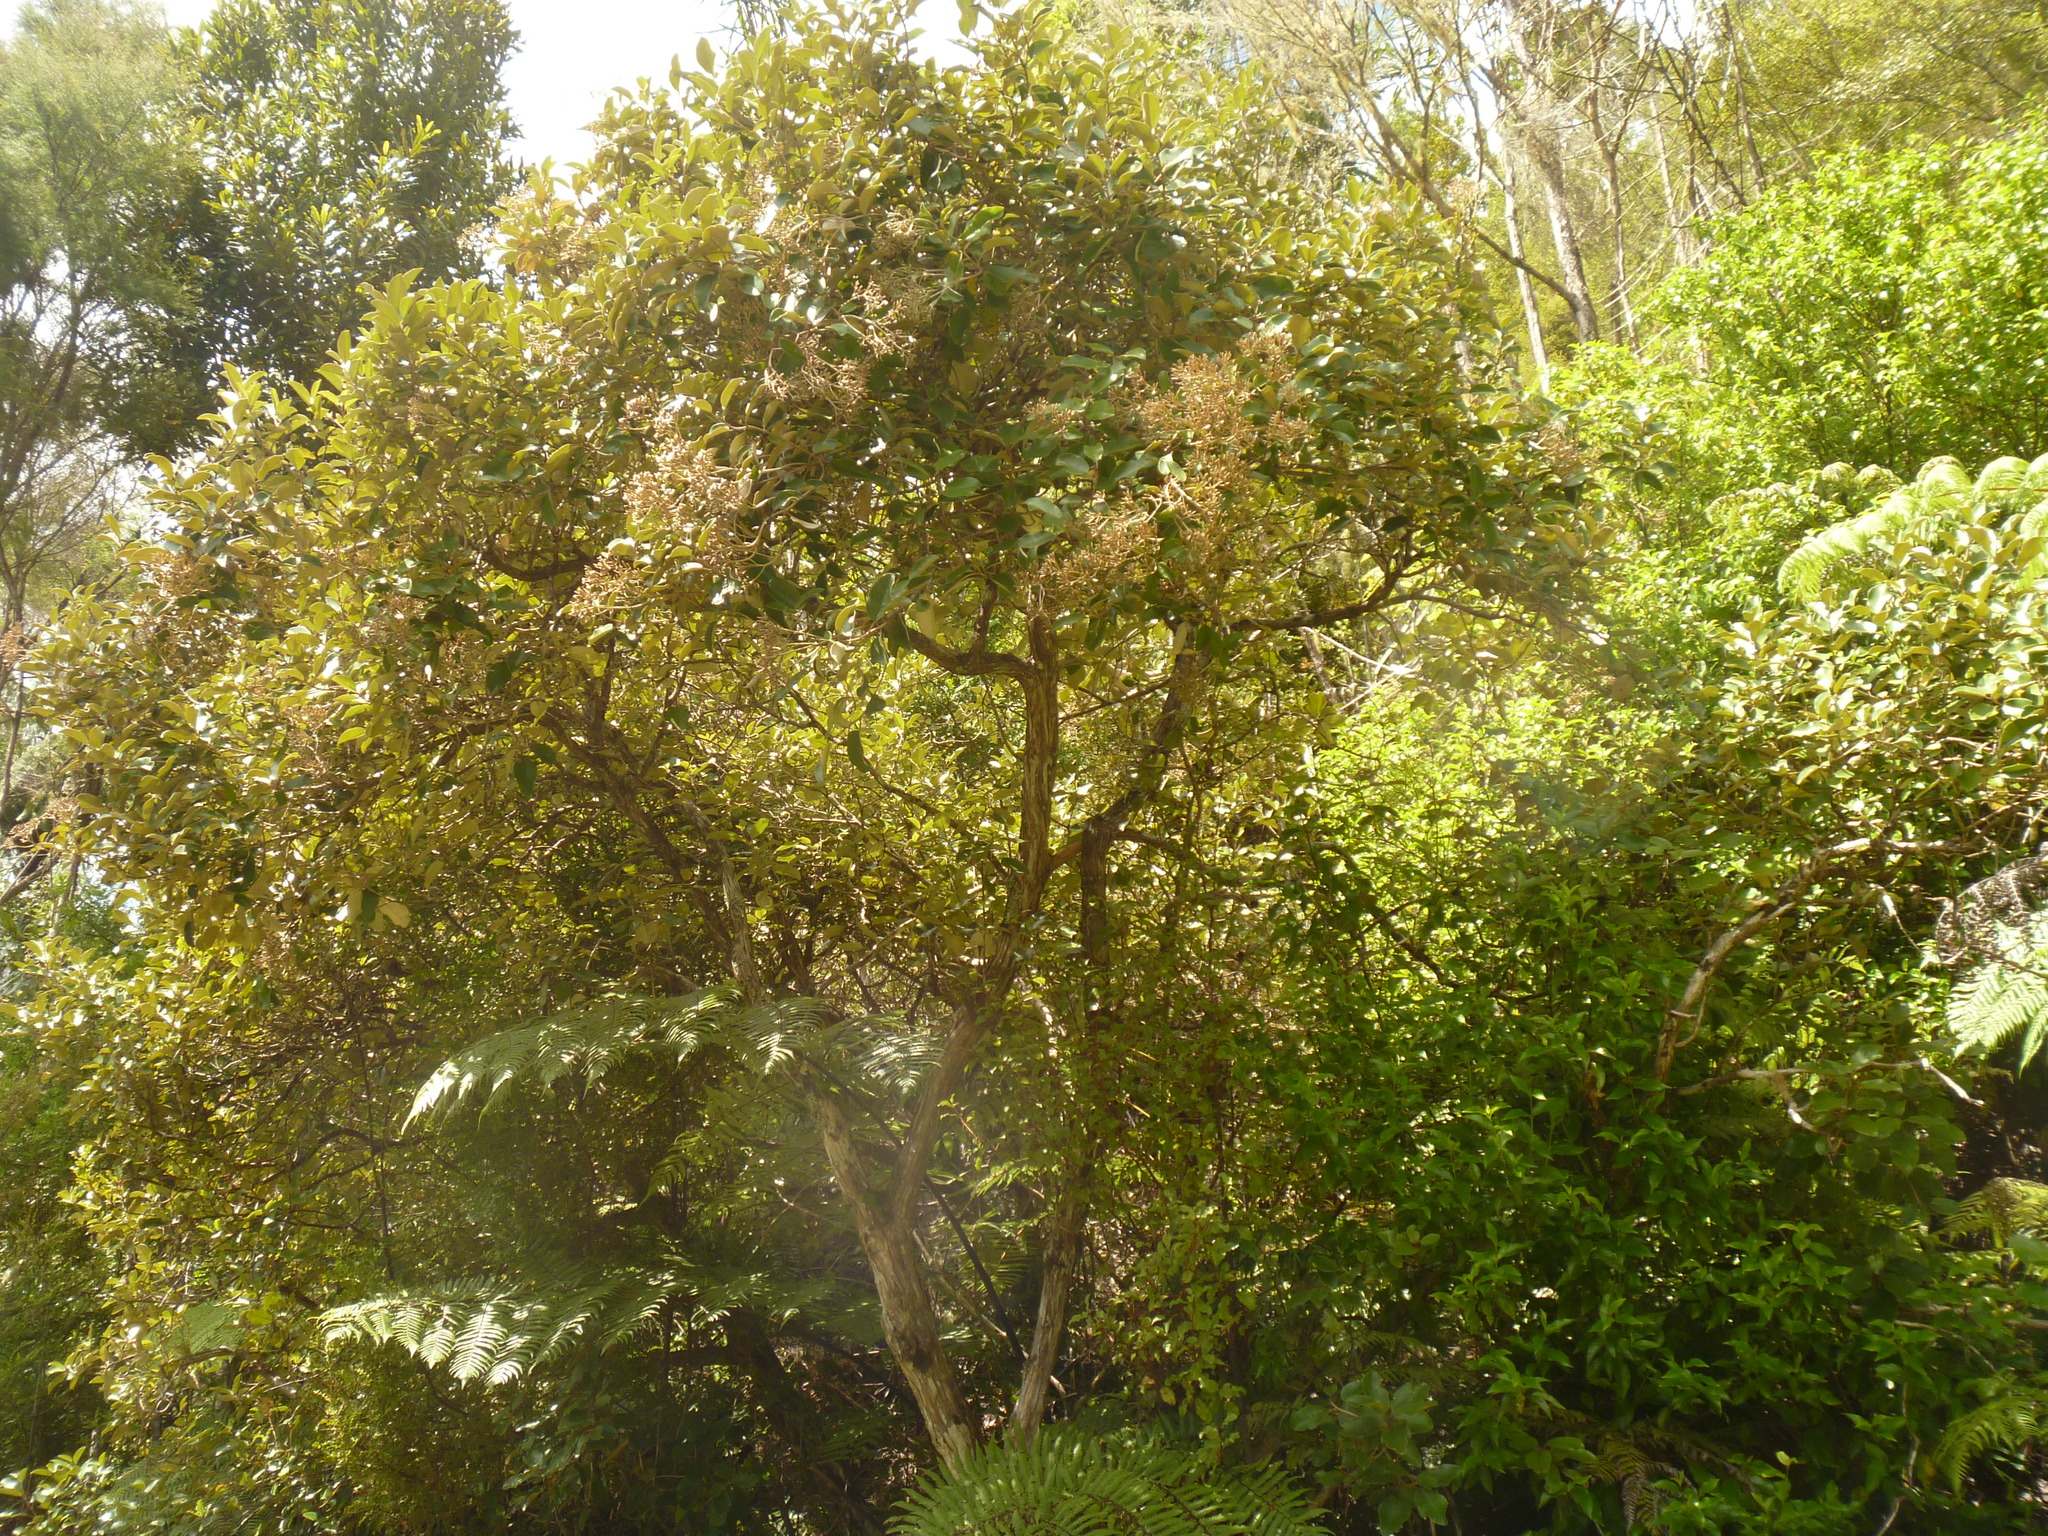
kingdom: Plantae
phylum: Tracheophyta
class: Magnoliopsida
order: Asterales
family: Asteraceae
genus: Olearia
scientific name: Olearia furfuracea
